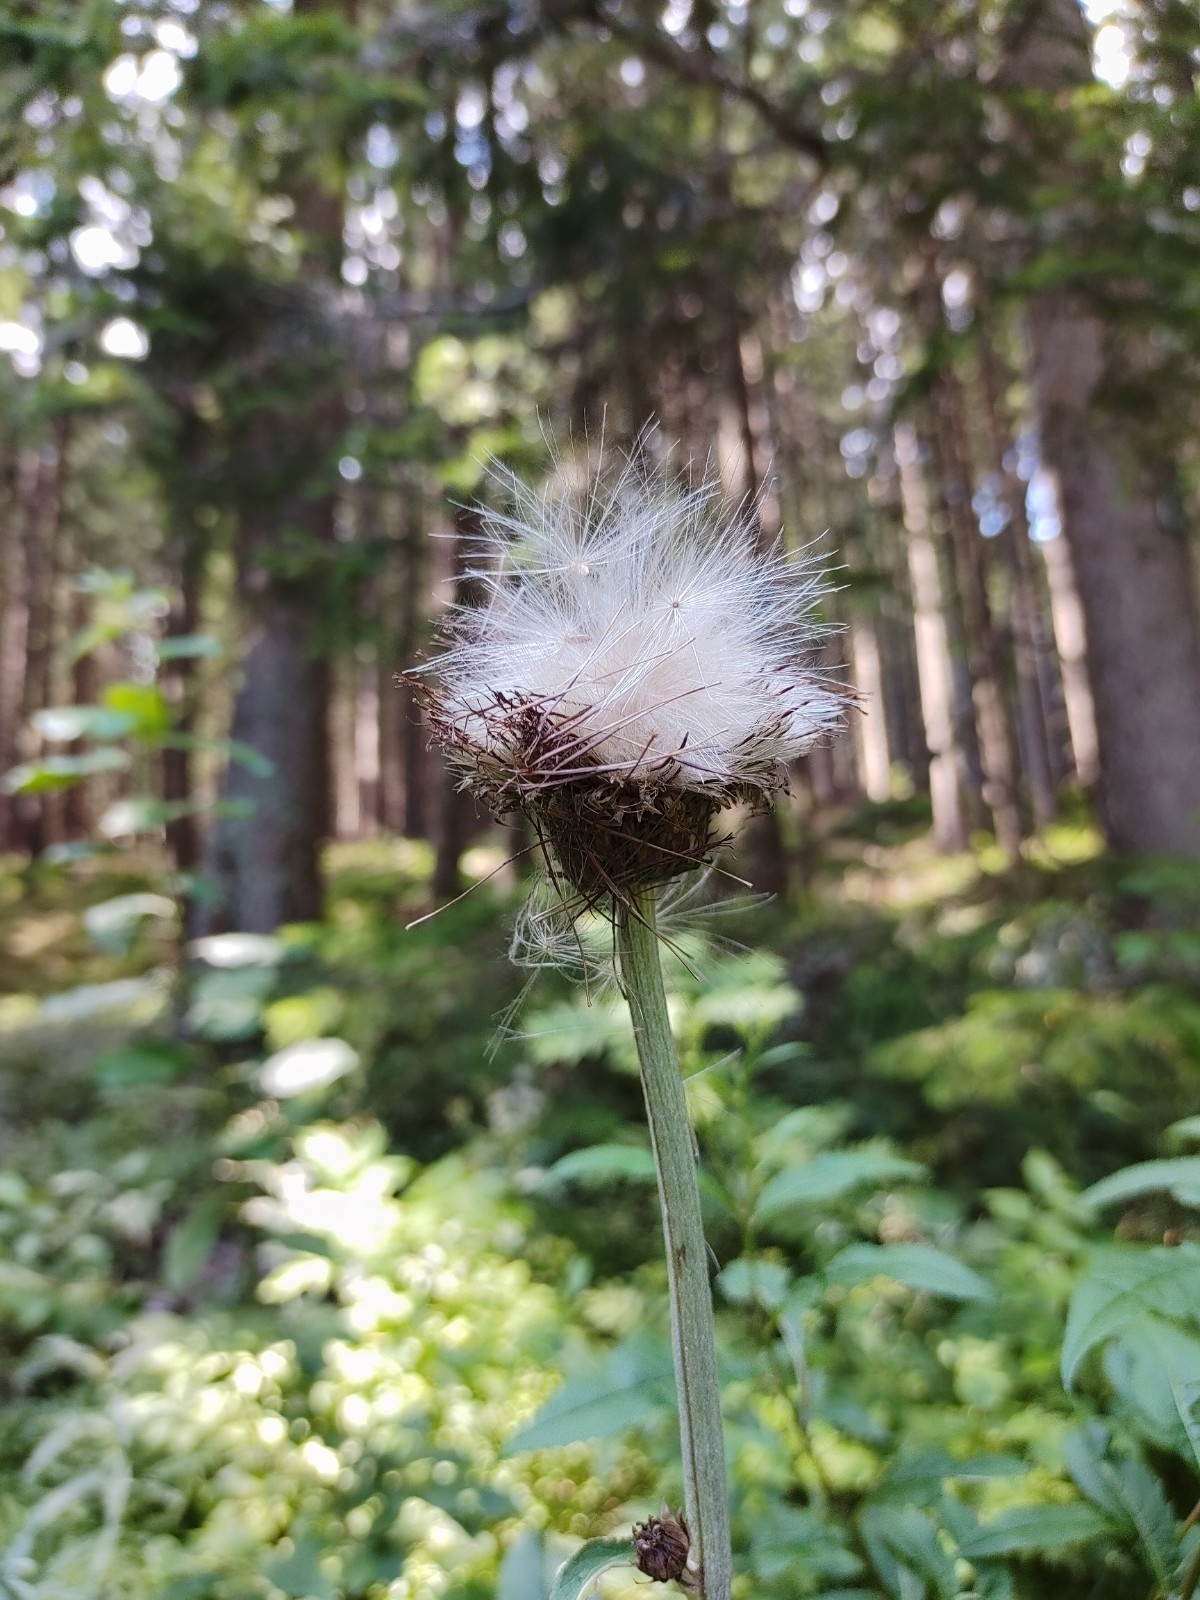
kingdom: Plantae
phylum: Tracheophyta
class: Magnoliopsida
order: Asterales
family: Asteraceae
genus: Cirsium
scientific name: Cirsium heterophyllum
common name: Melancholy thistle
